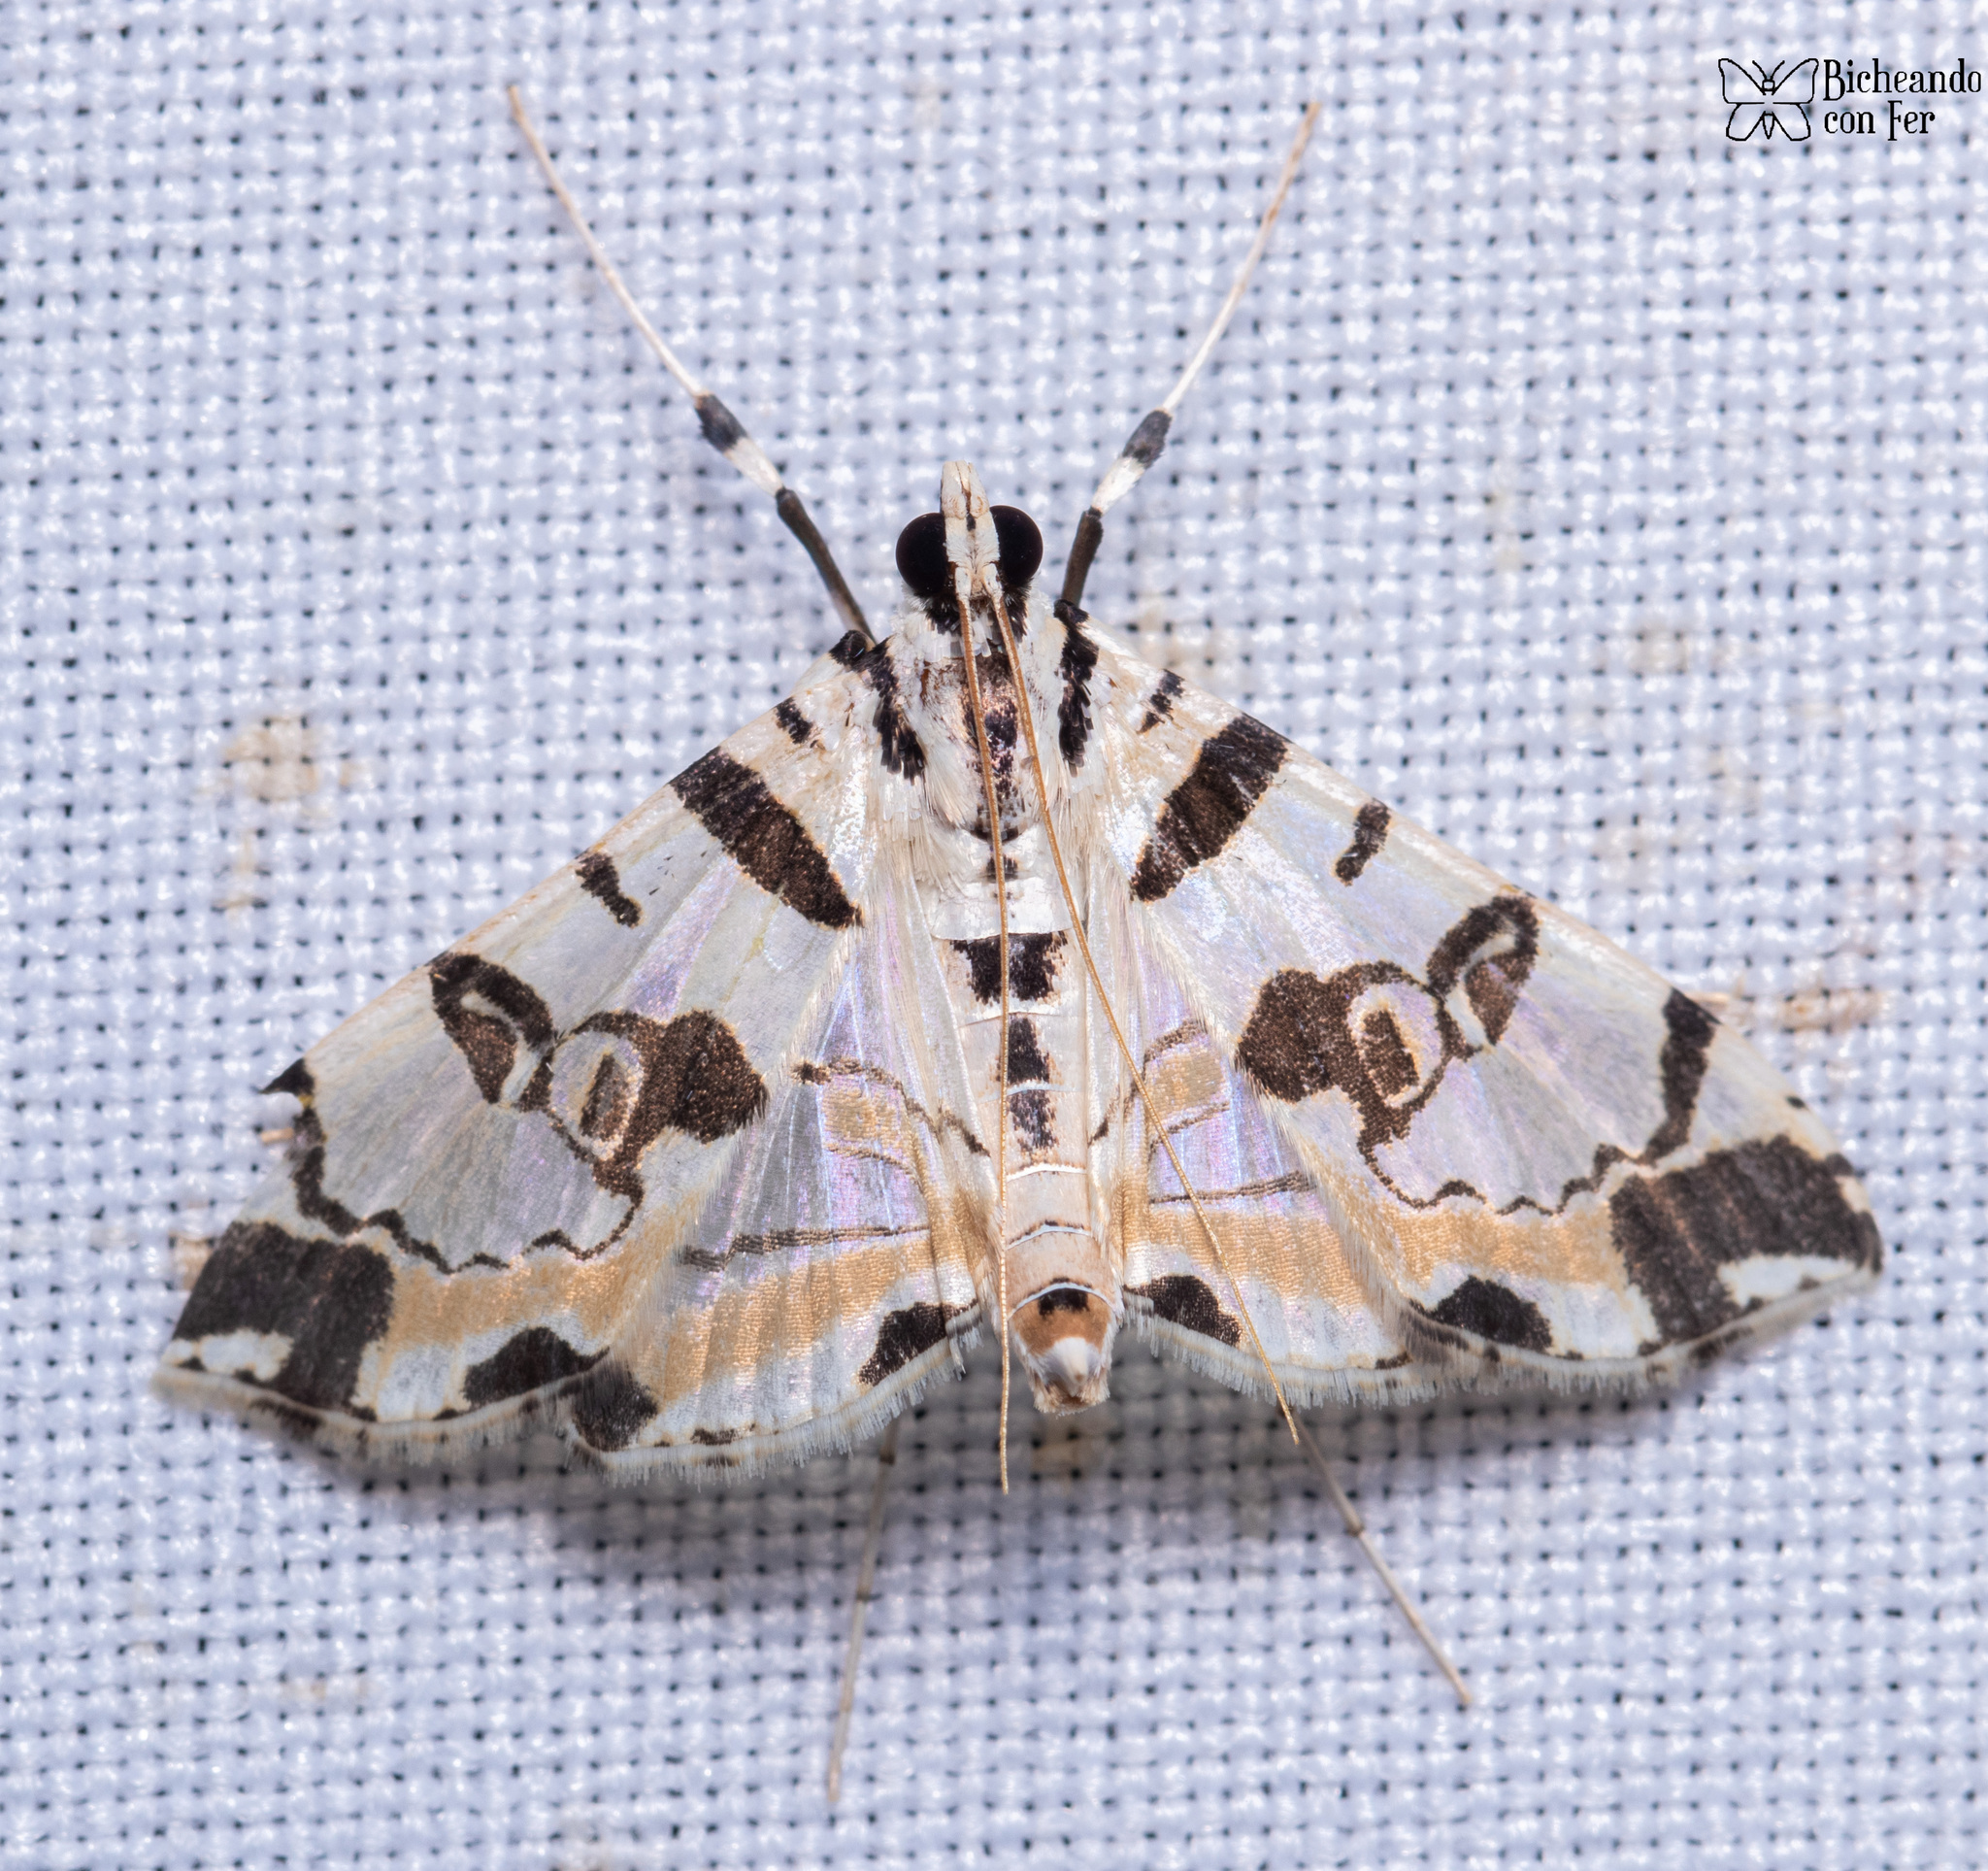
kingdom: Animalia
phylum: Arthropoda
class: Insecta
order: Lepidoptera
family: Crambidae
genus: Conchylodes
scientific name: Conchylodes salamisalis
